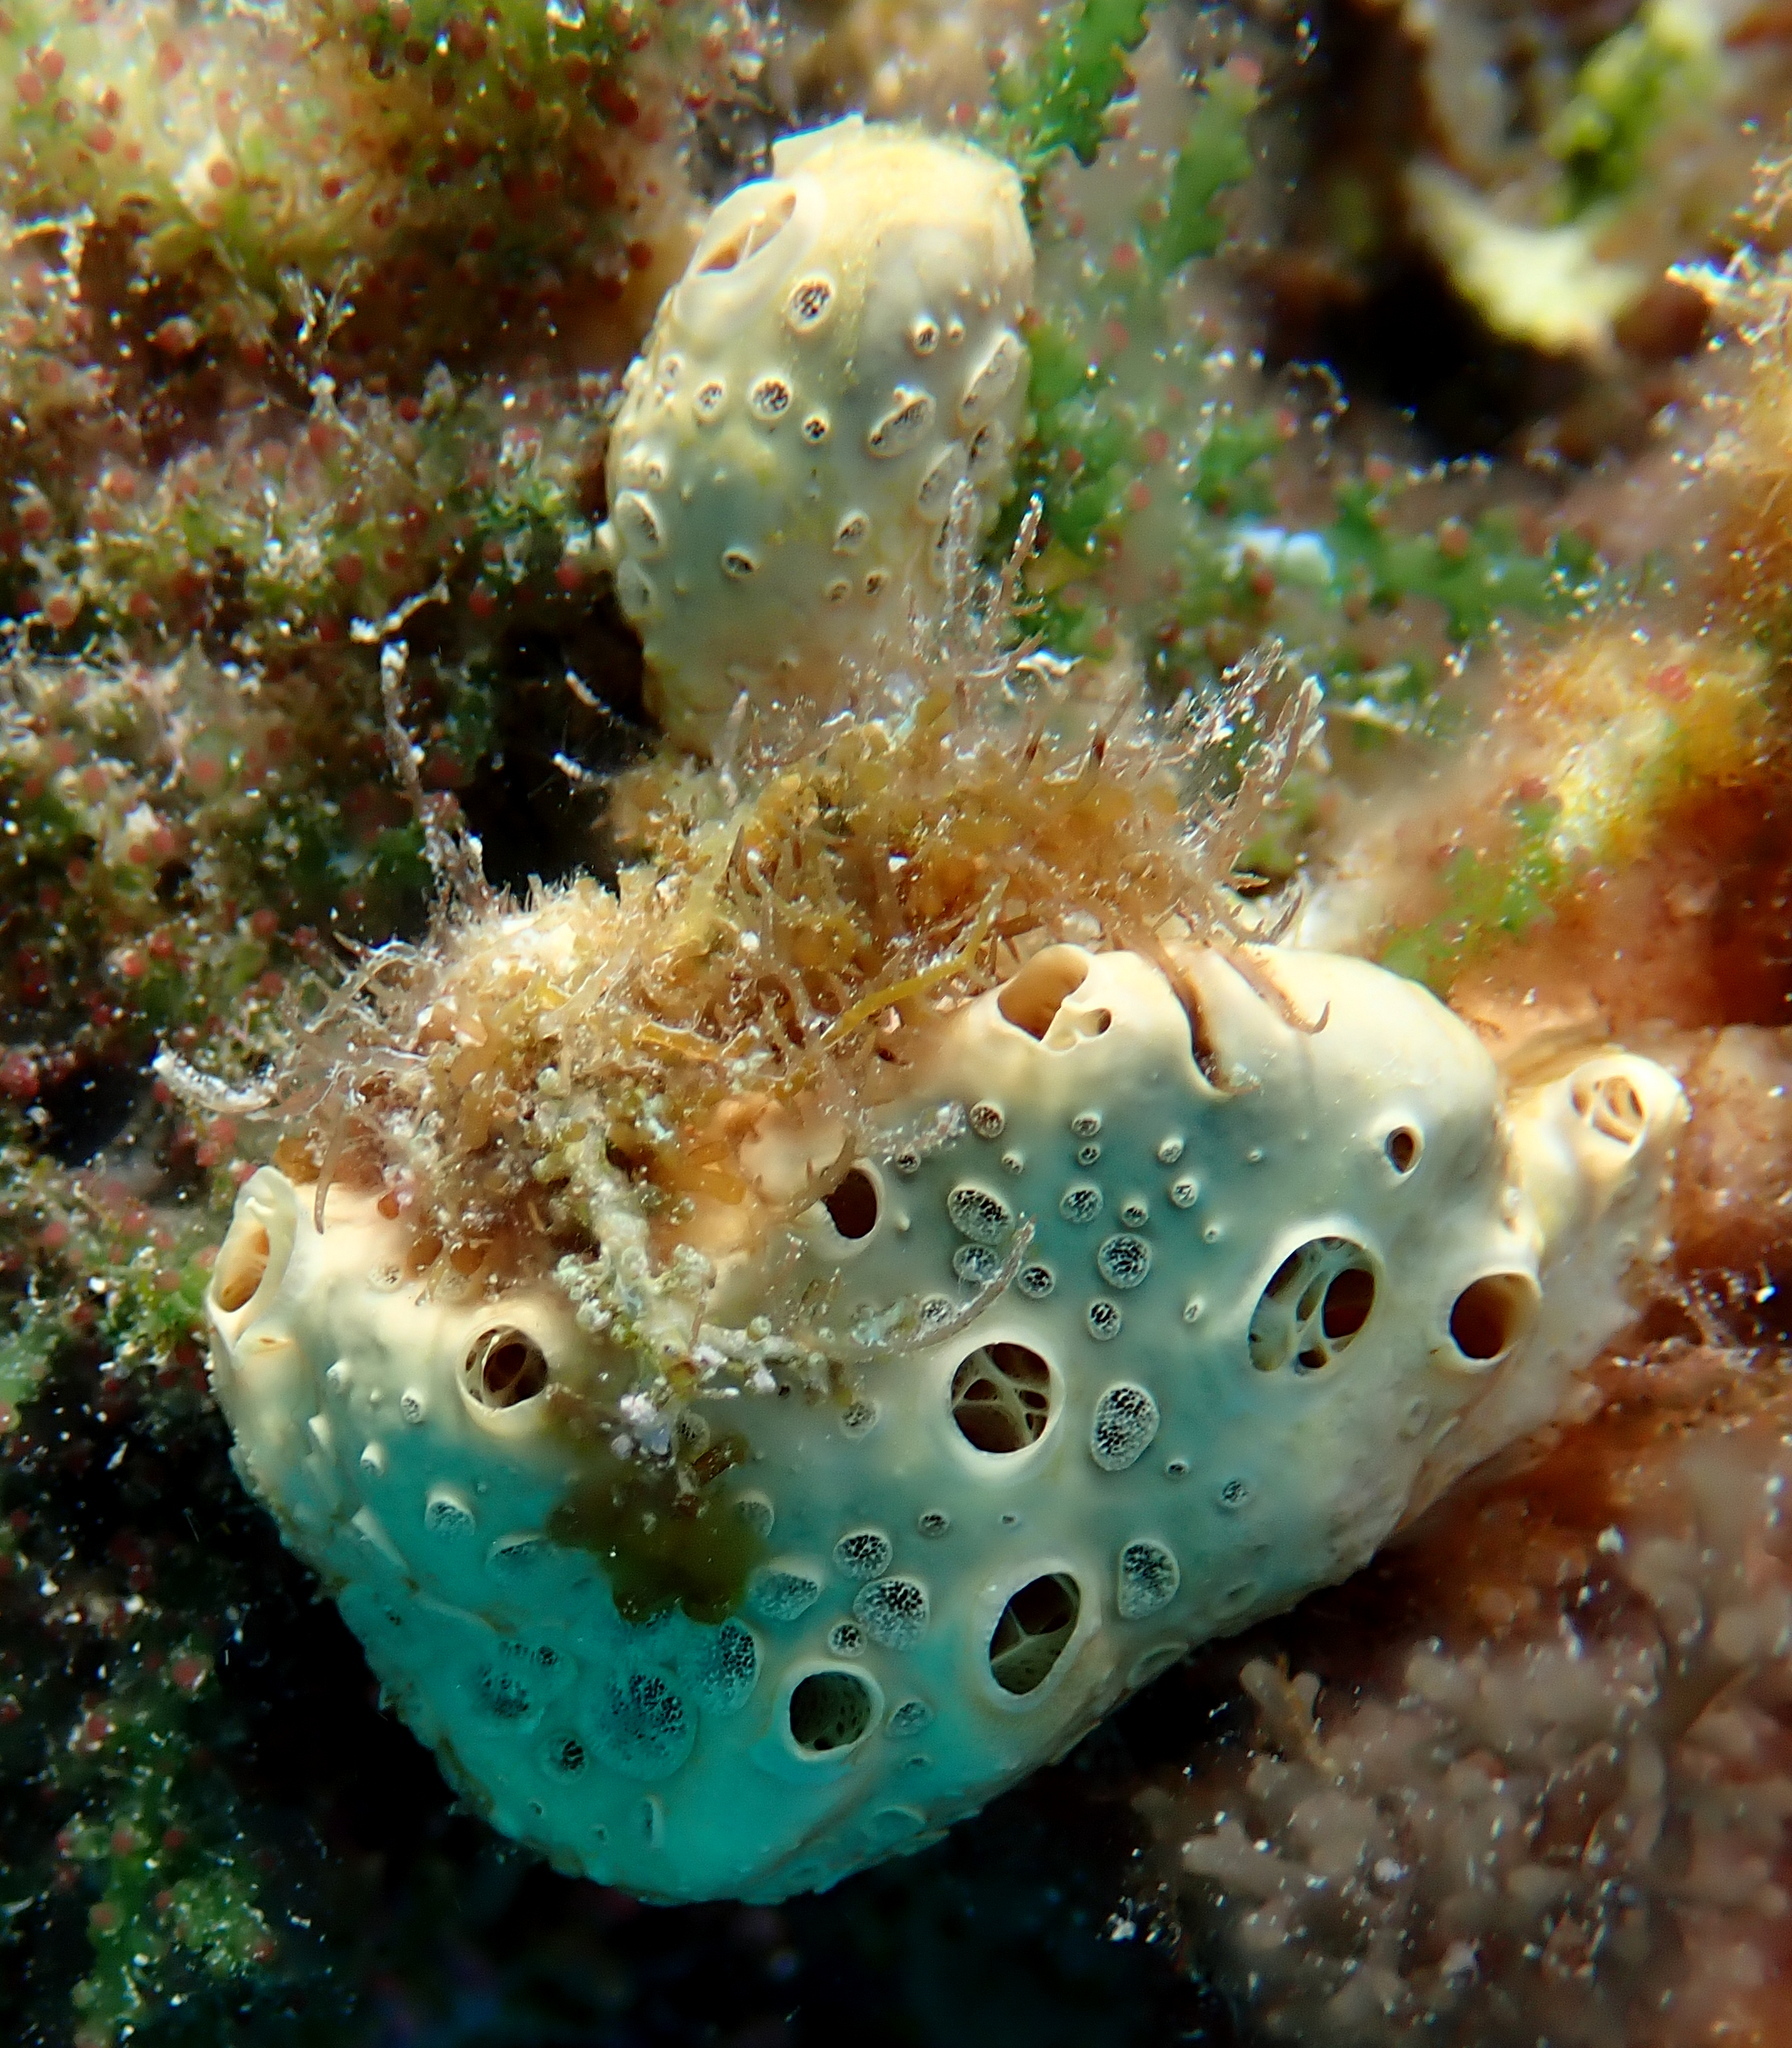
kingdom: Animalia
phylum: Porifera
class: Demospongiae
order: Poecilosclerida
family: Crellidae
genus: Crella
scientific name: Crella cyathophora
